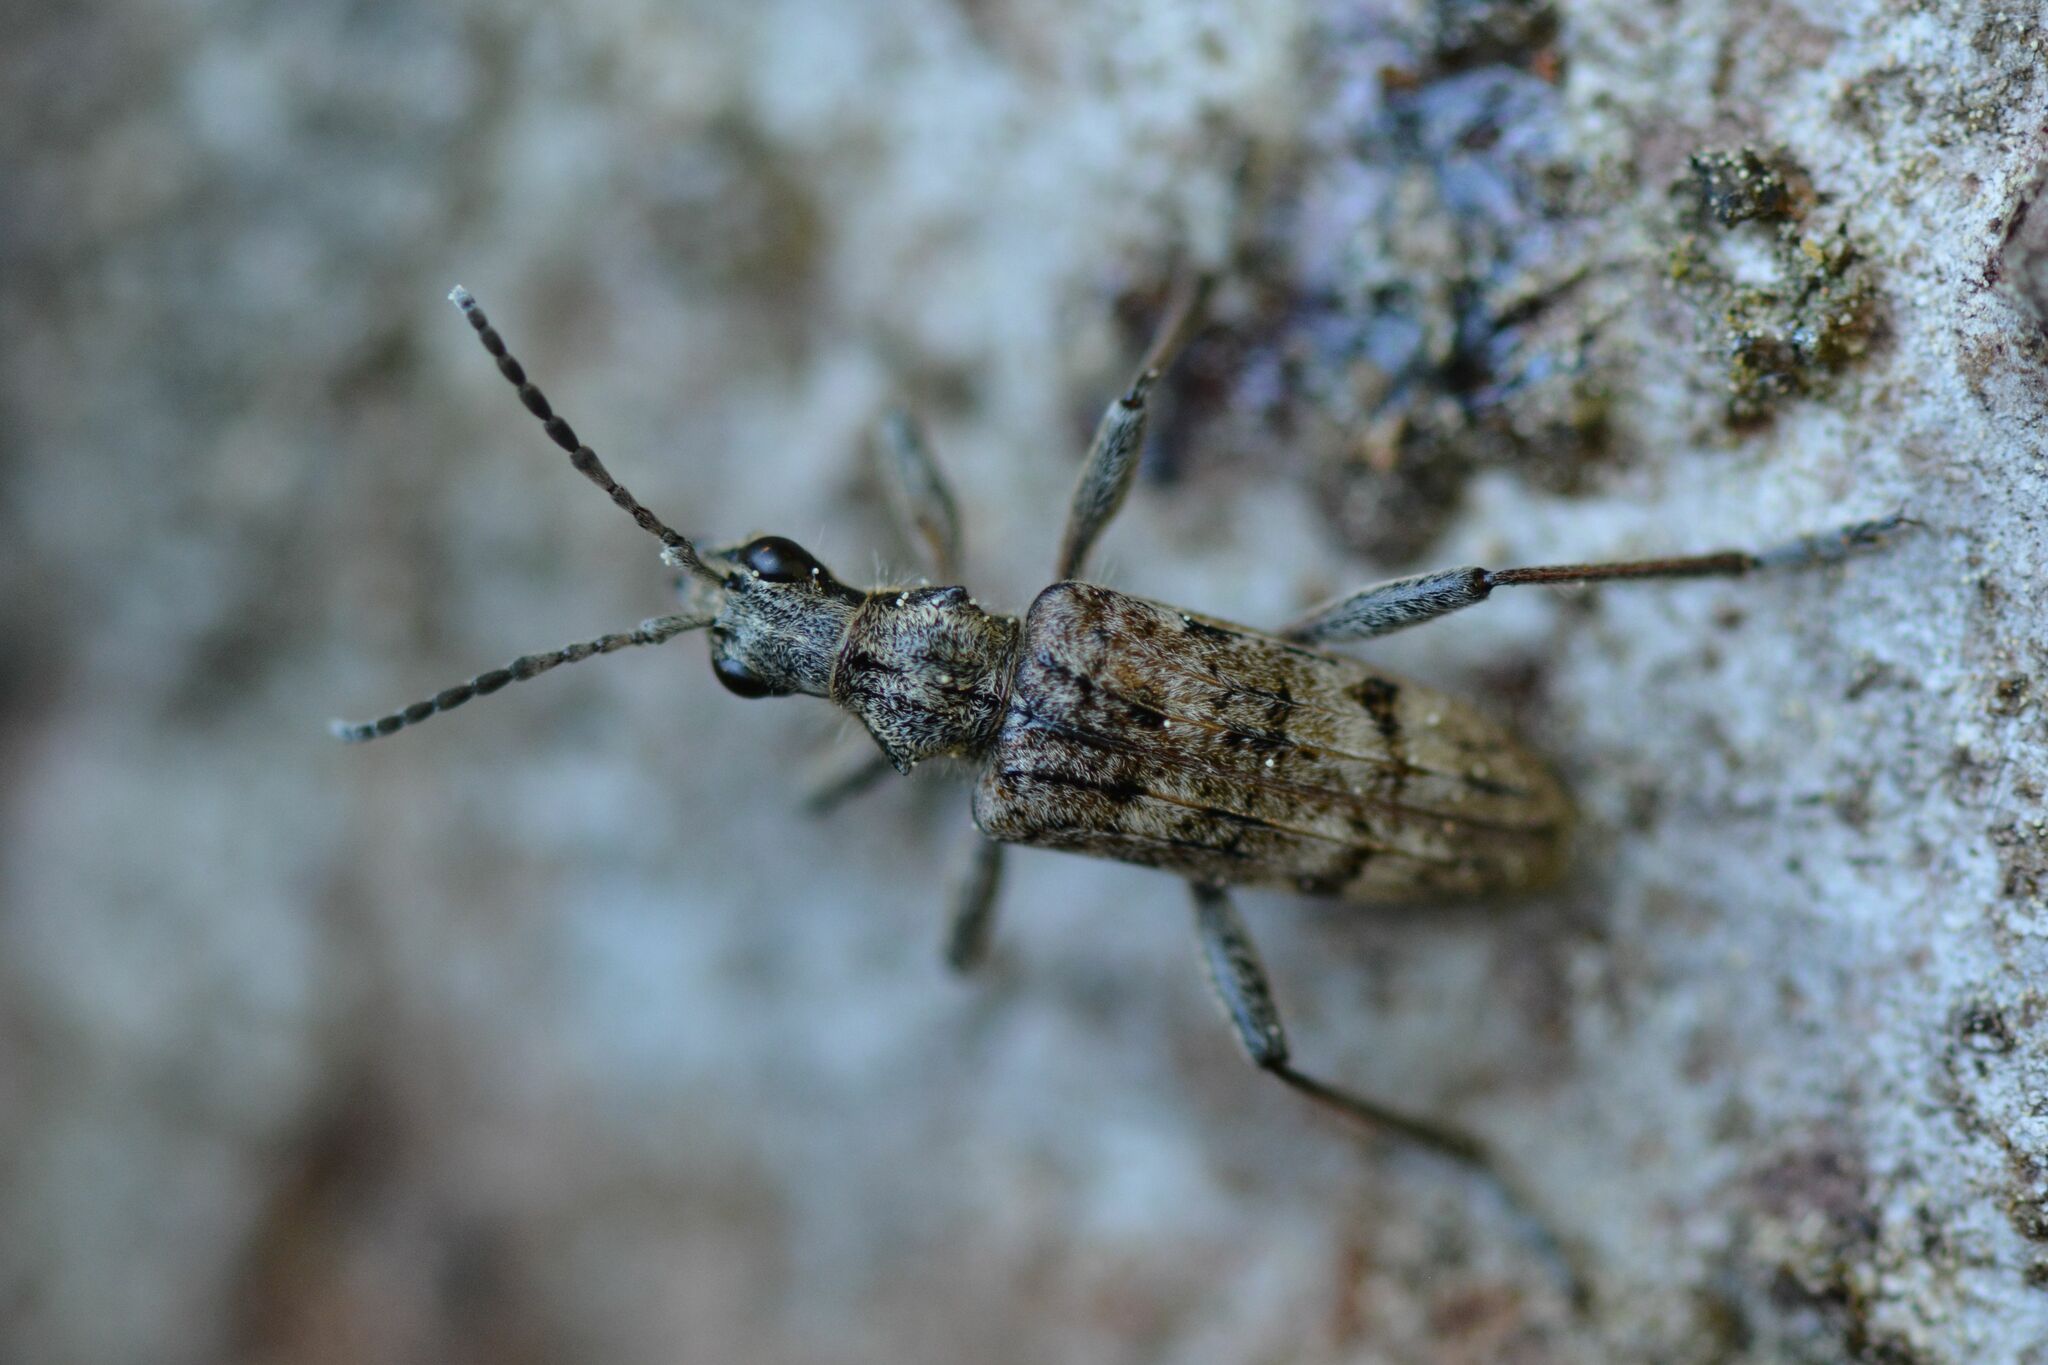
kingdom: Animalia
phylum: Arthropoda
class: Insecta
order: Coleoptera
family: Cerambycidae
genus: Rhagium
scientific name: Rhagium inquisitor
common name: Ribbed pine borer
